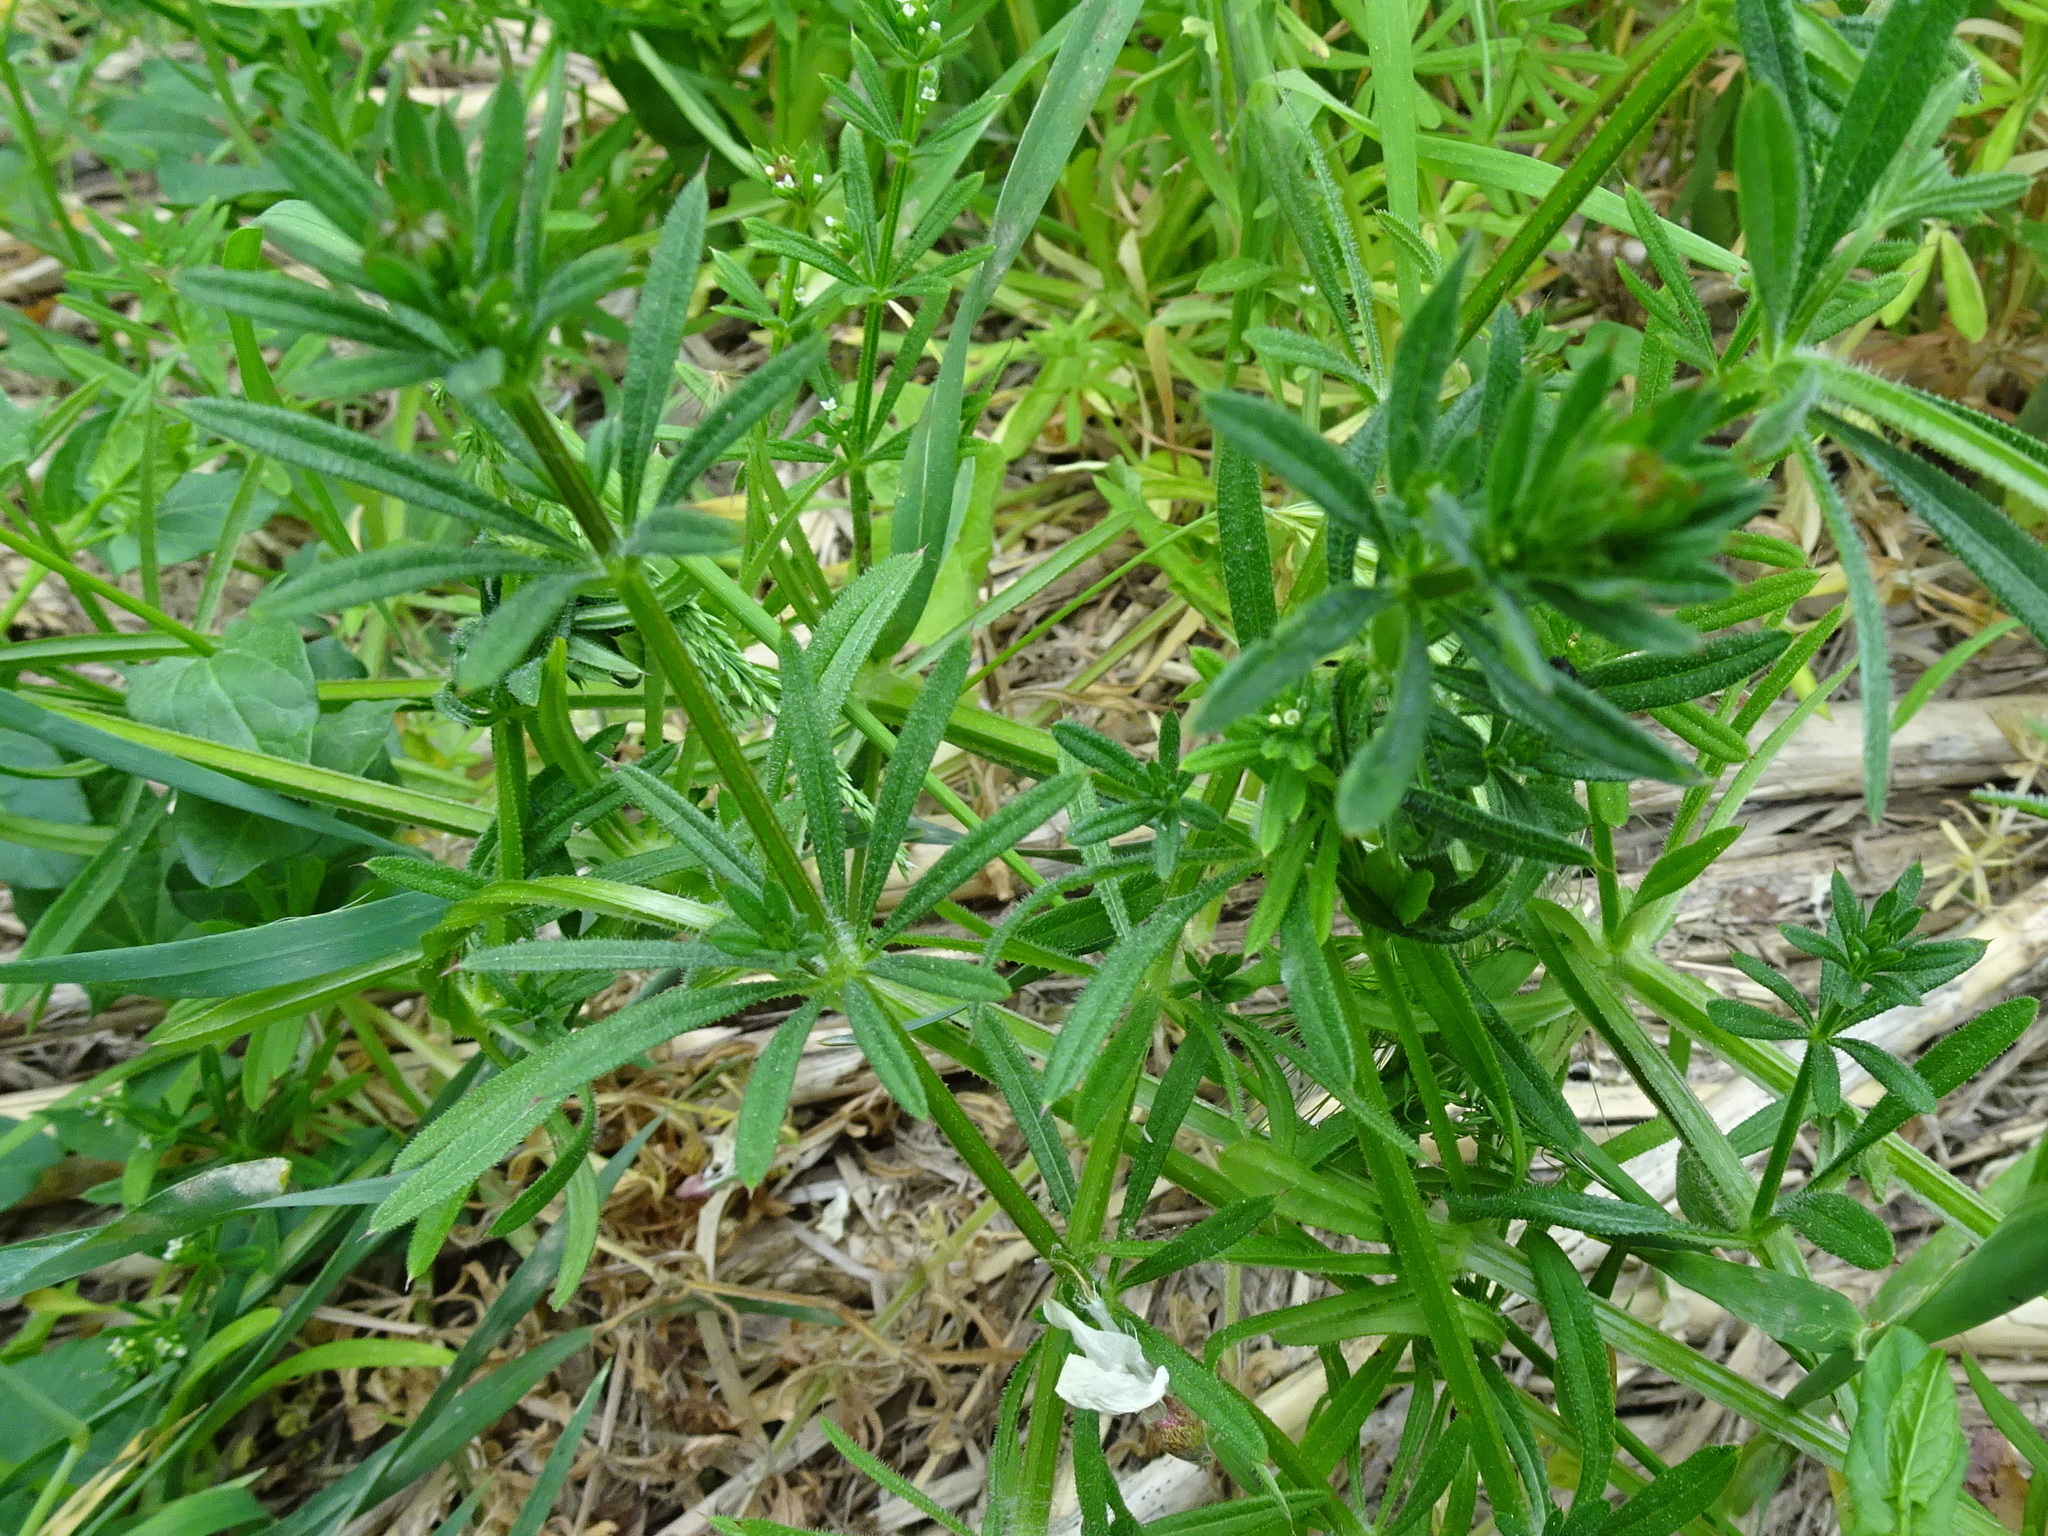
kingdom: Plantae
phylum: Tracheophyta
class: Magnoliopsida
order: Gentianales
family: Rubiaceae
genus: Galium
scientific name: Galium aparine
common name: Cleavers
